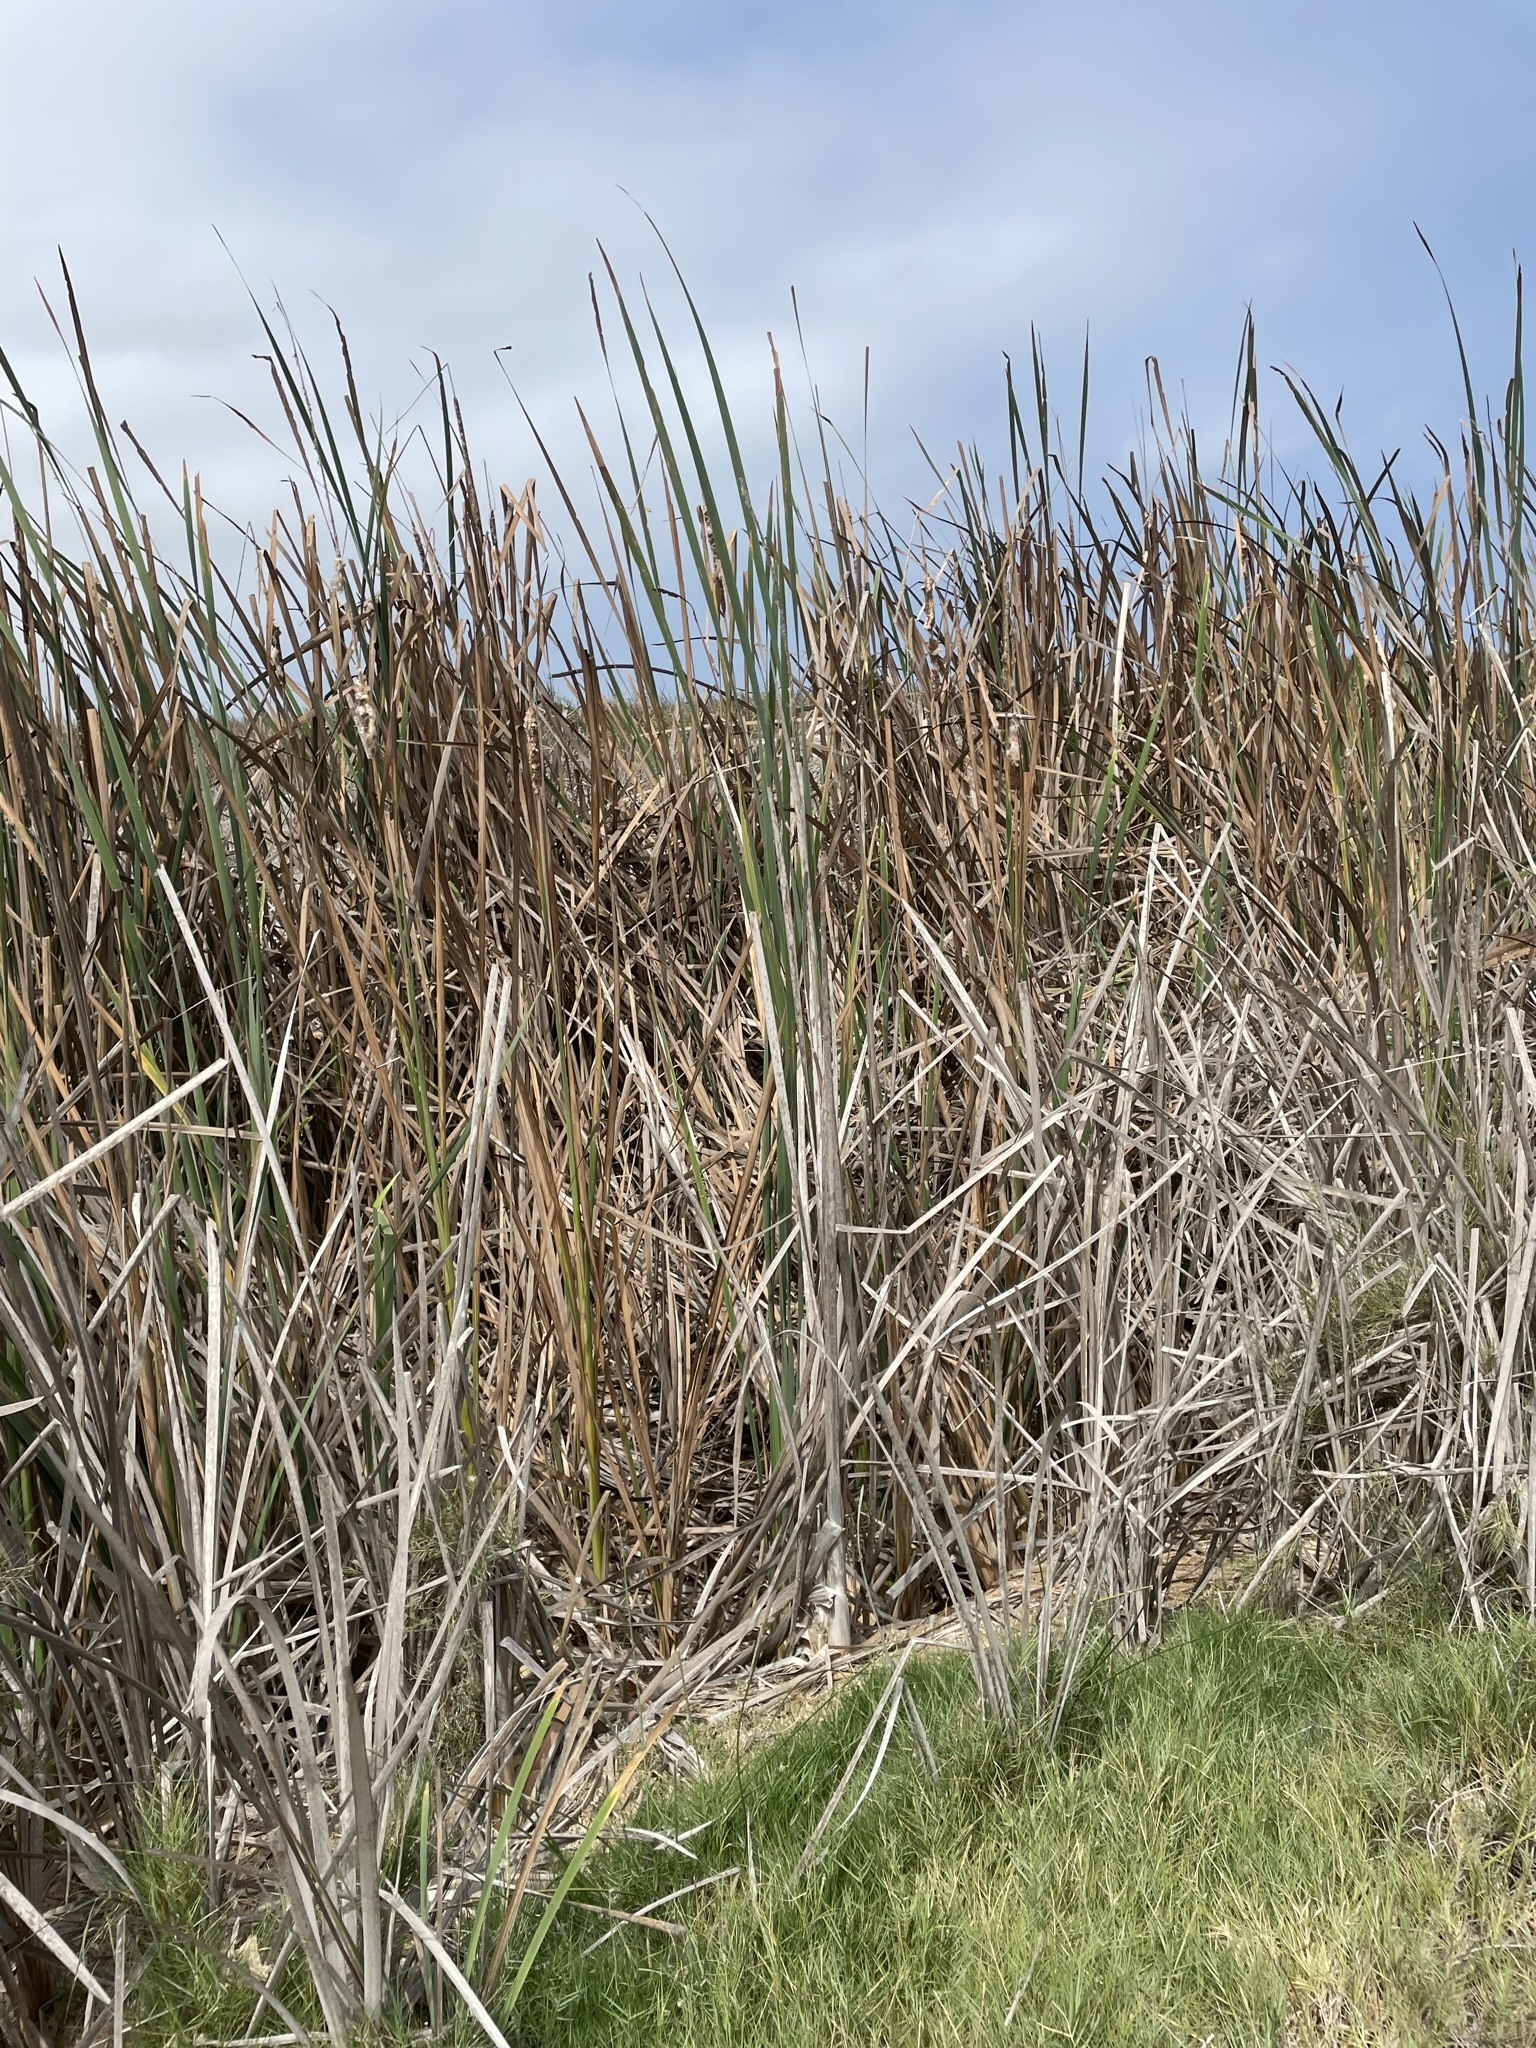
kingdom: Plantae
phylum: Tracheophyta
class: Liliopsida
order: Poales
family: Typhaceae
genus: Typha
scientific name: Typha domingensis
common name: Southern cattail
